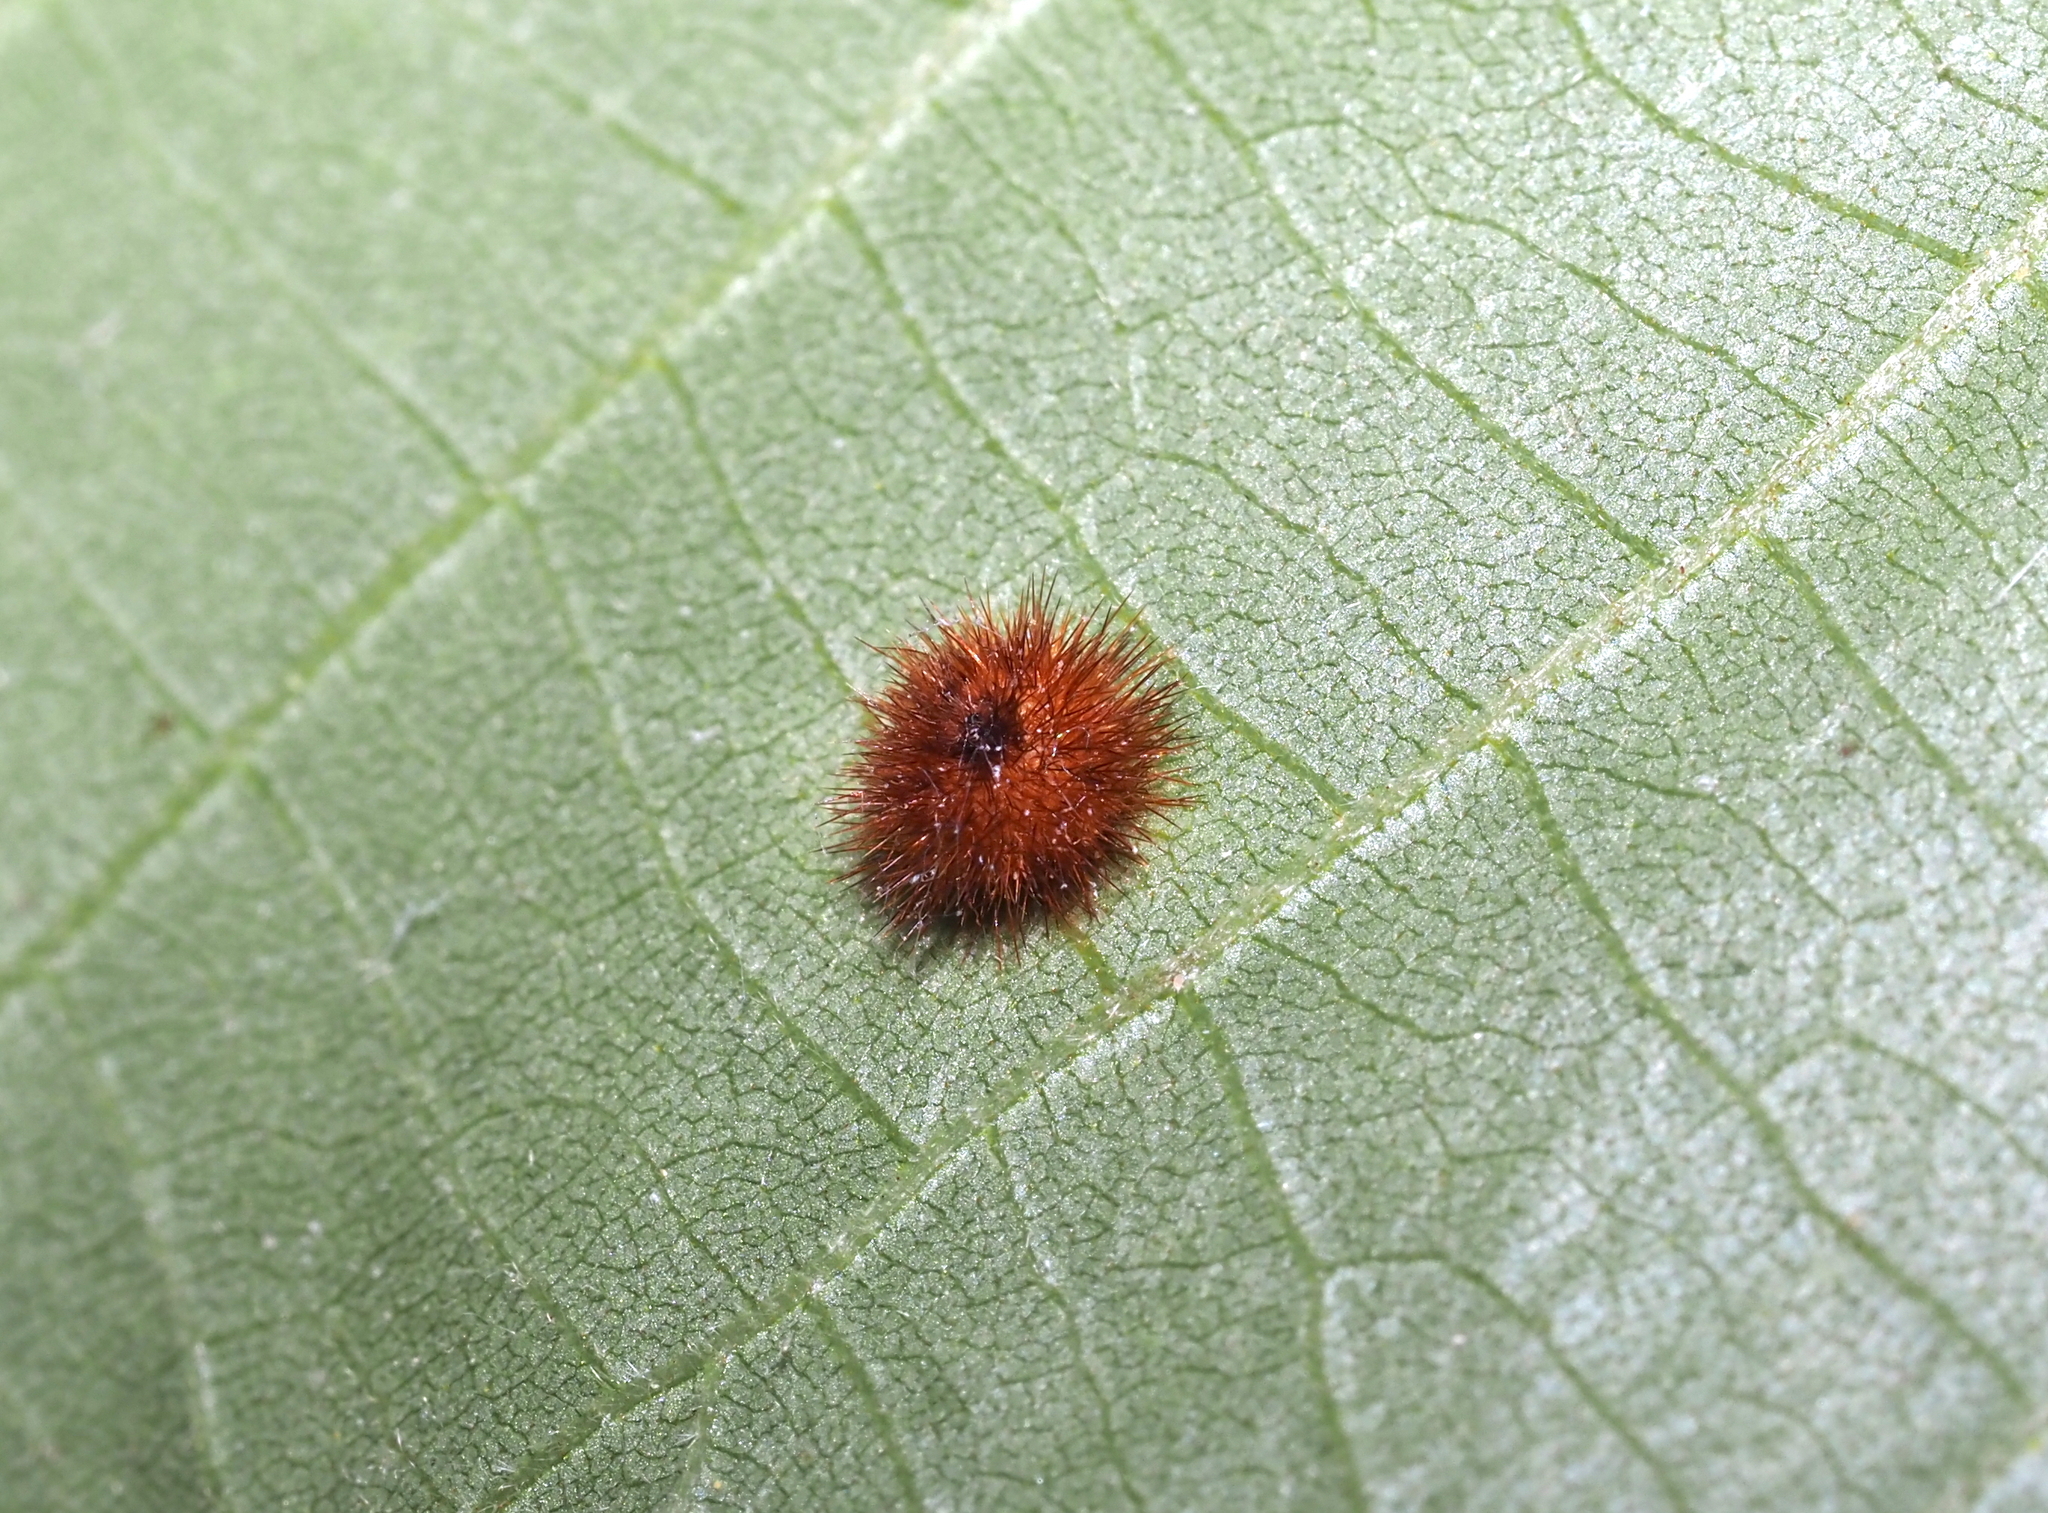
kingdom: Animalia
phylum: Arthropoda
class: Insecta
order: Diptera
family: Cecidomyiidae
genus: Caryomyia
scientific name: Caryomyia purpurea
